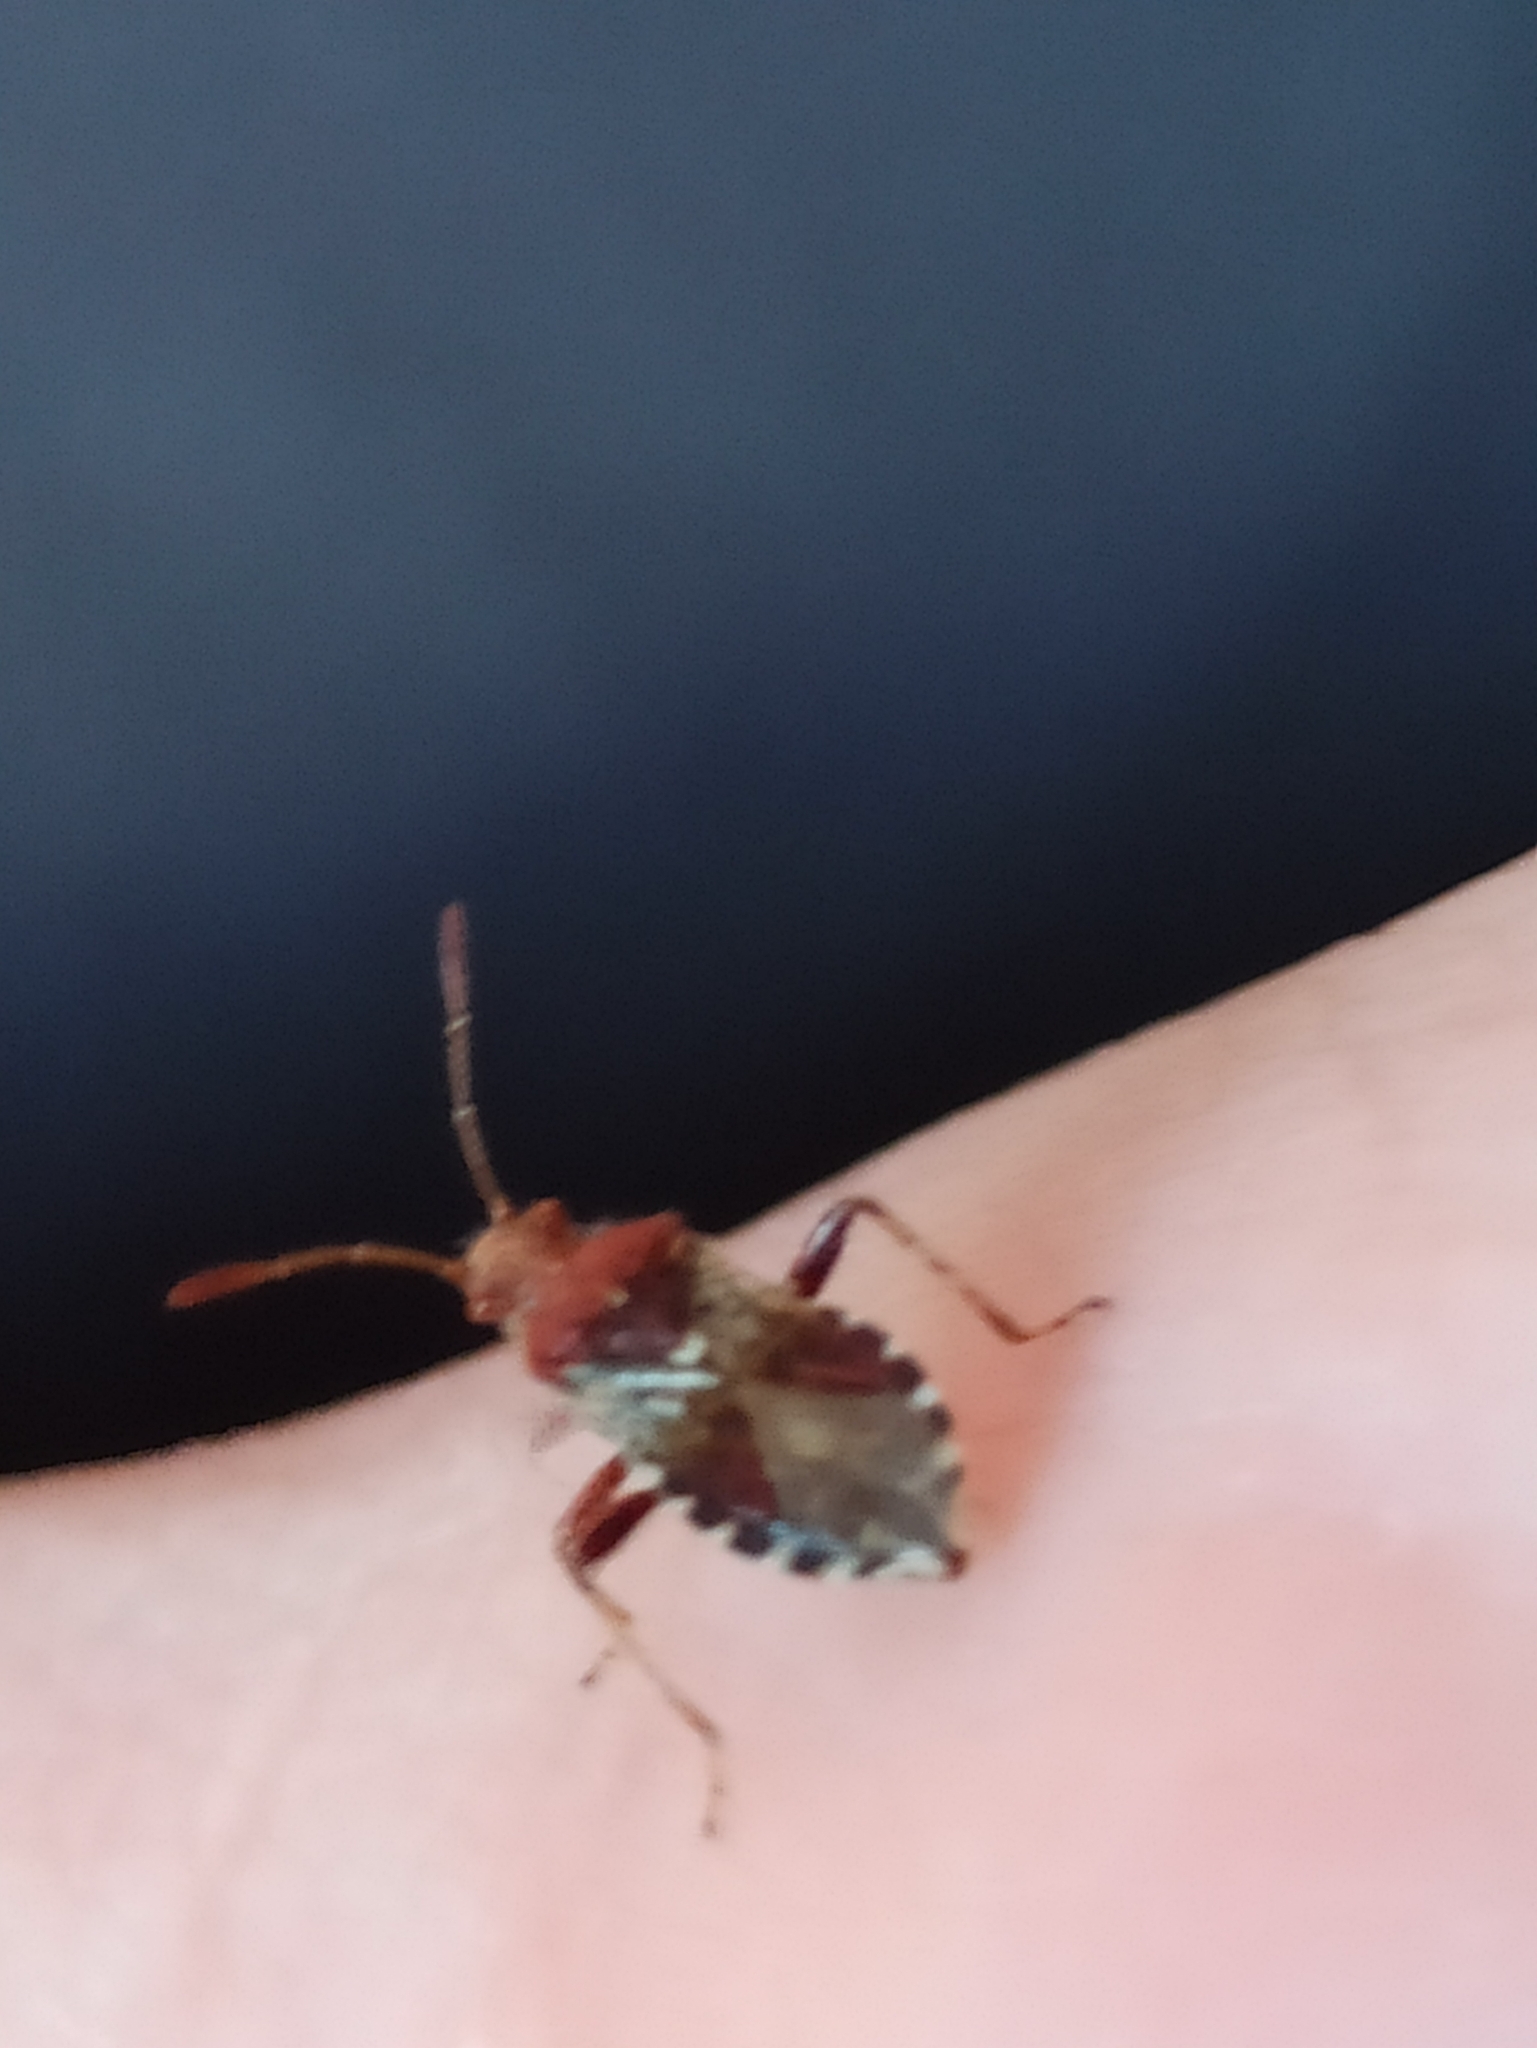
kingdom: Animalia
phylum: Arthropoda
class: Insecta
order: Hemiptera
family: Rhopalidae
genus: Rhopalus
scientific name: Rhopalus subrufus
